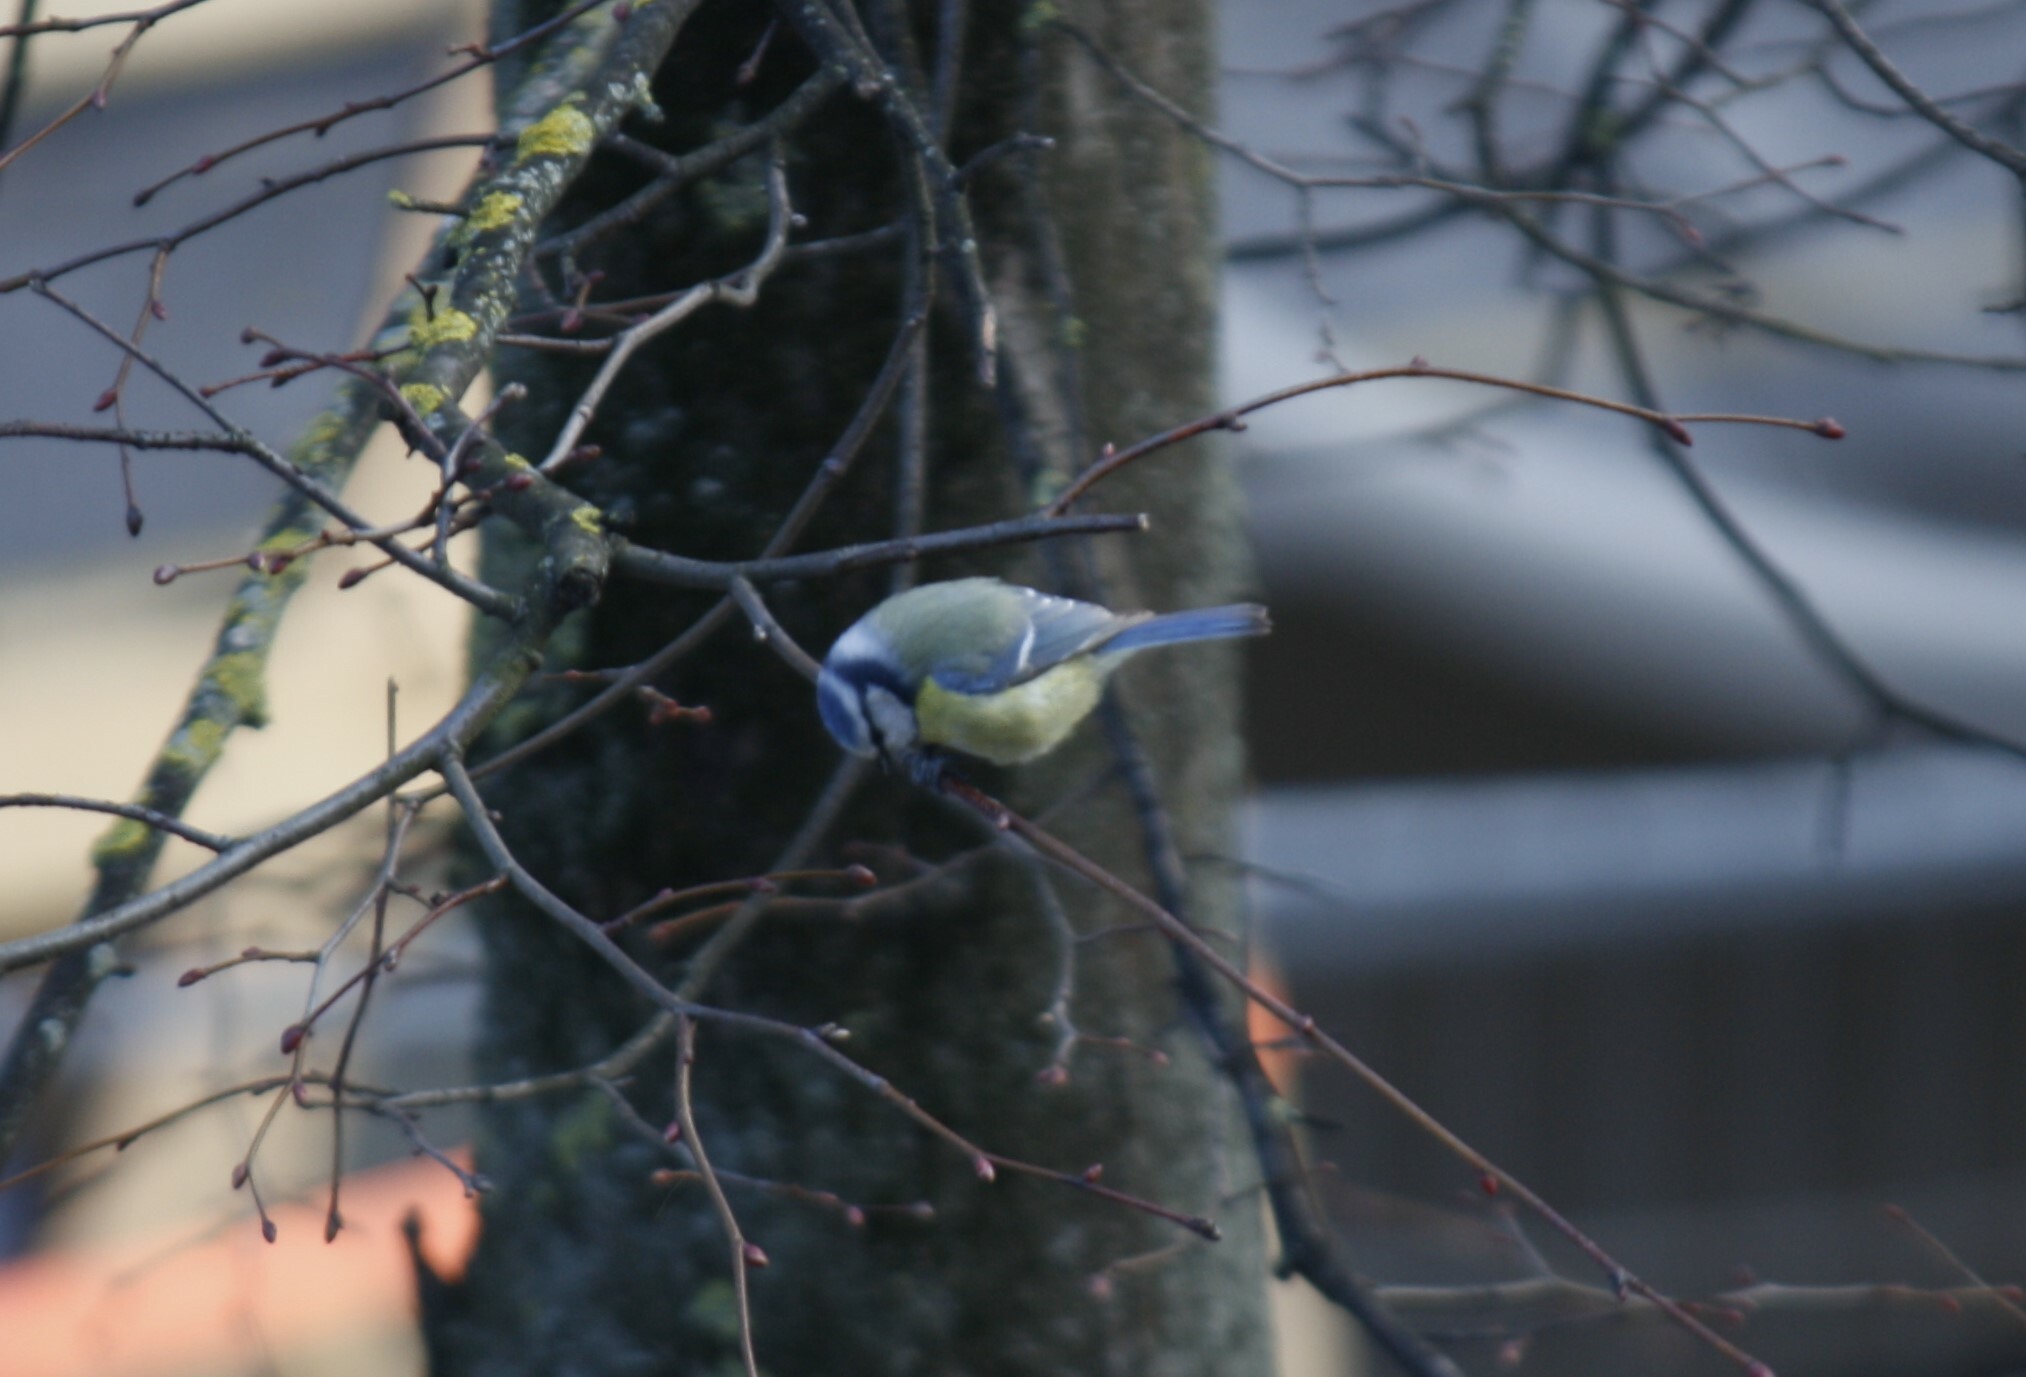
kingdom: Animalia
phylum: Chordata
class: Aves
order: Passeriformes
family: Paridae
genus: Cyanistes
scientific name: Cyanistes caeruleus
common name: Eurasian blue tit
